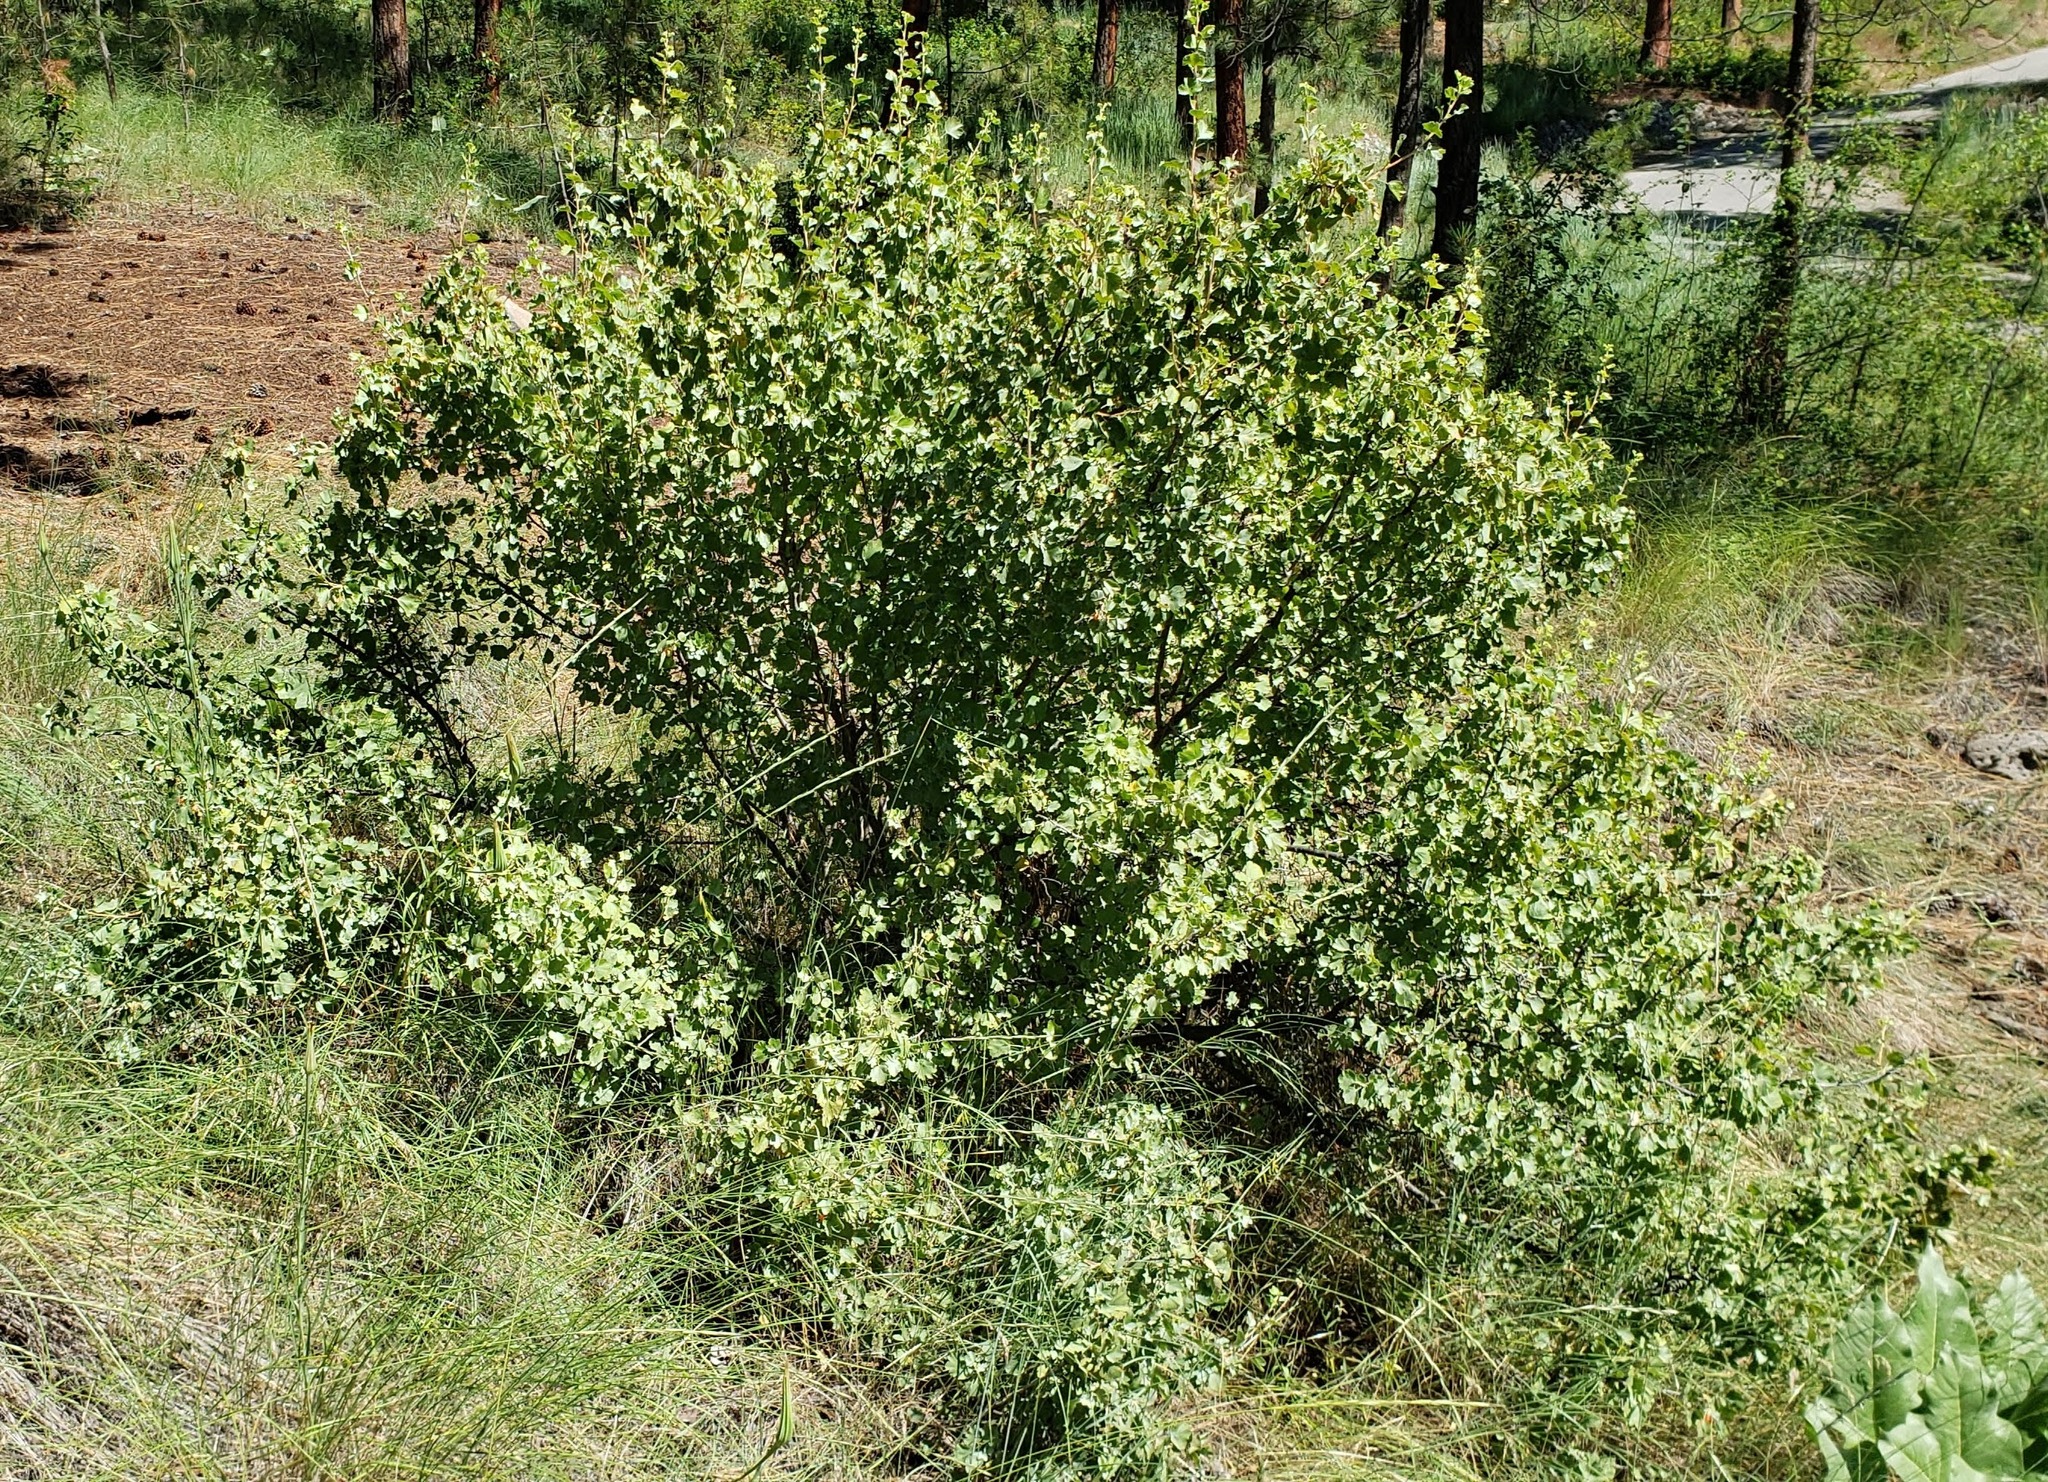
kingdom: Plantae
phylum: Tracheophyta
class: Magnoliopsida
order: Saxifragales
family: Grossulariaceae
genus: Ribes
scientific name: Ribes cereum
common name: Wax currant
